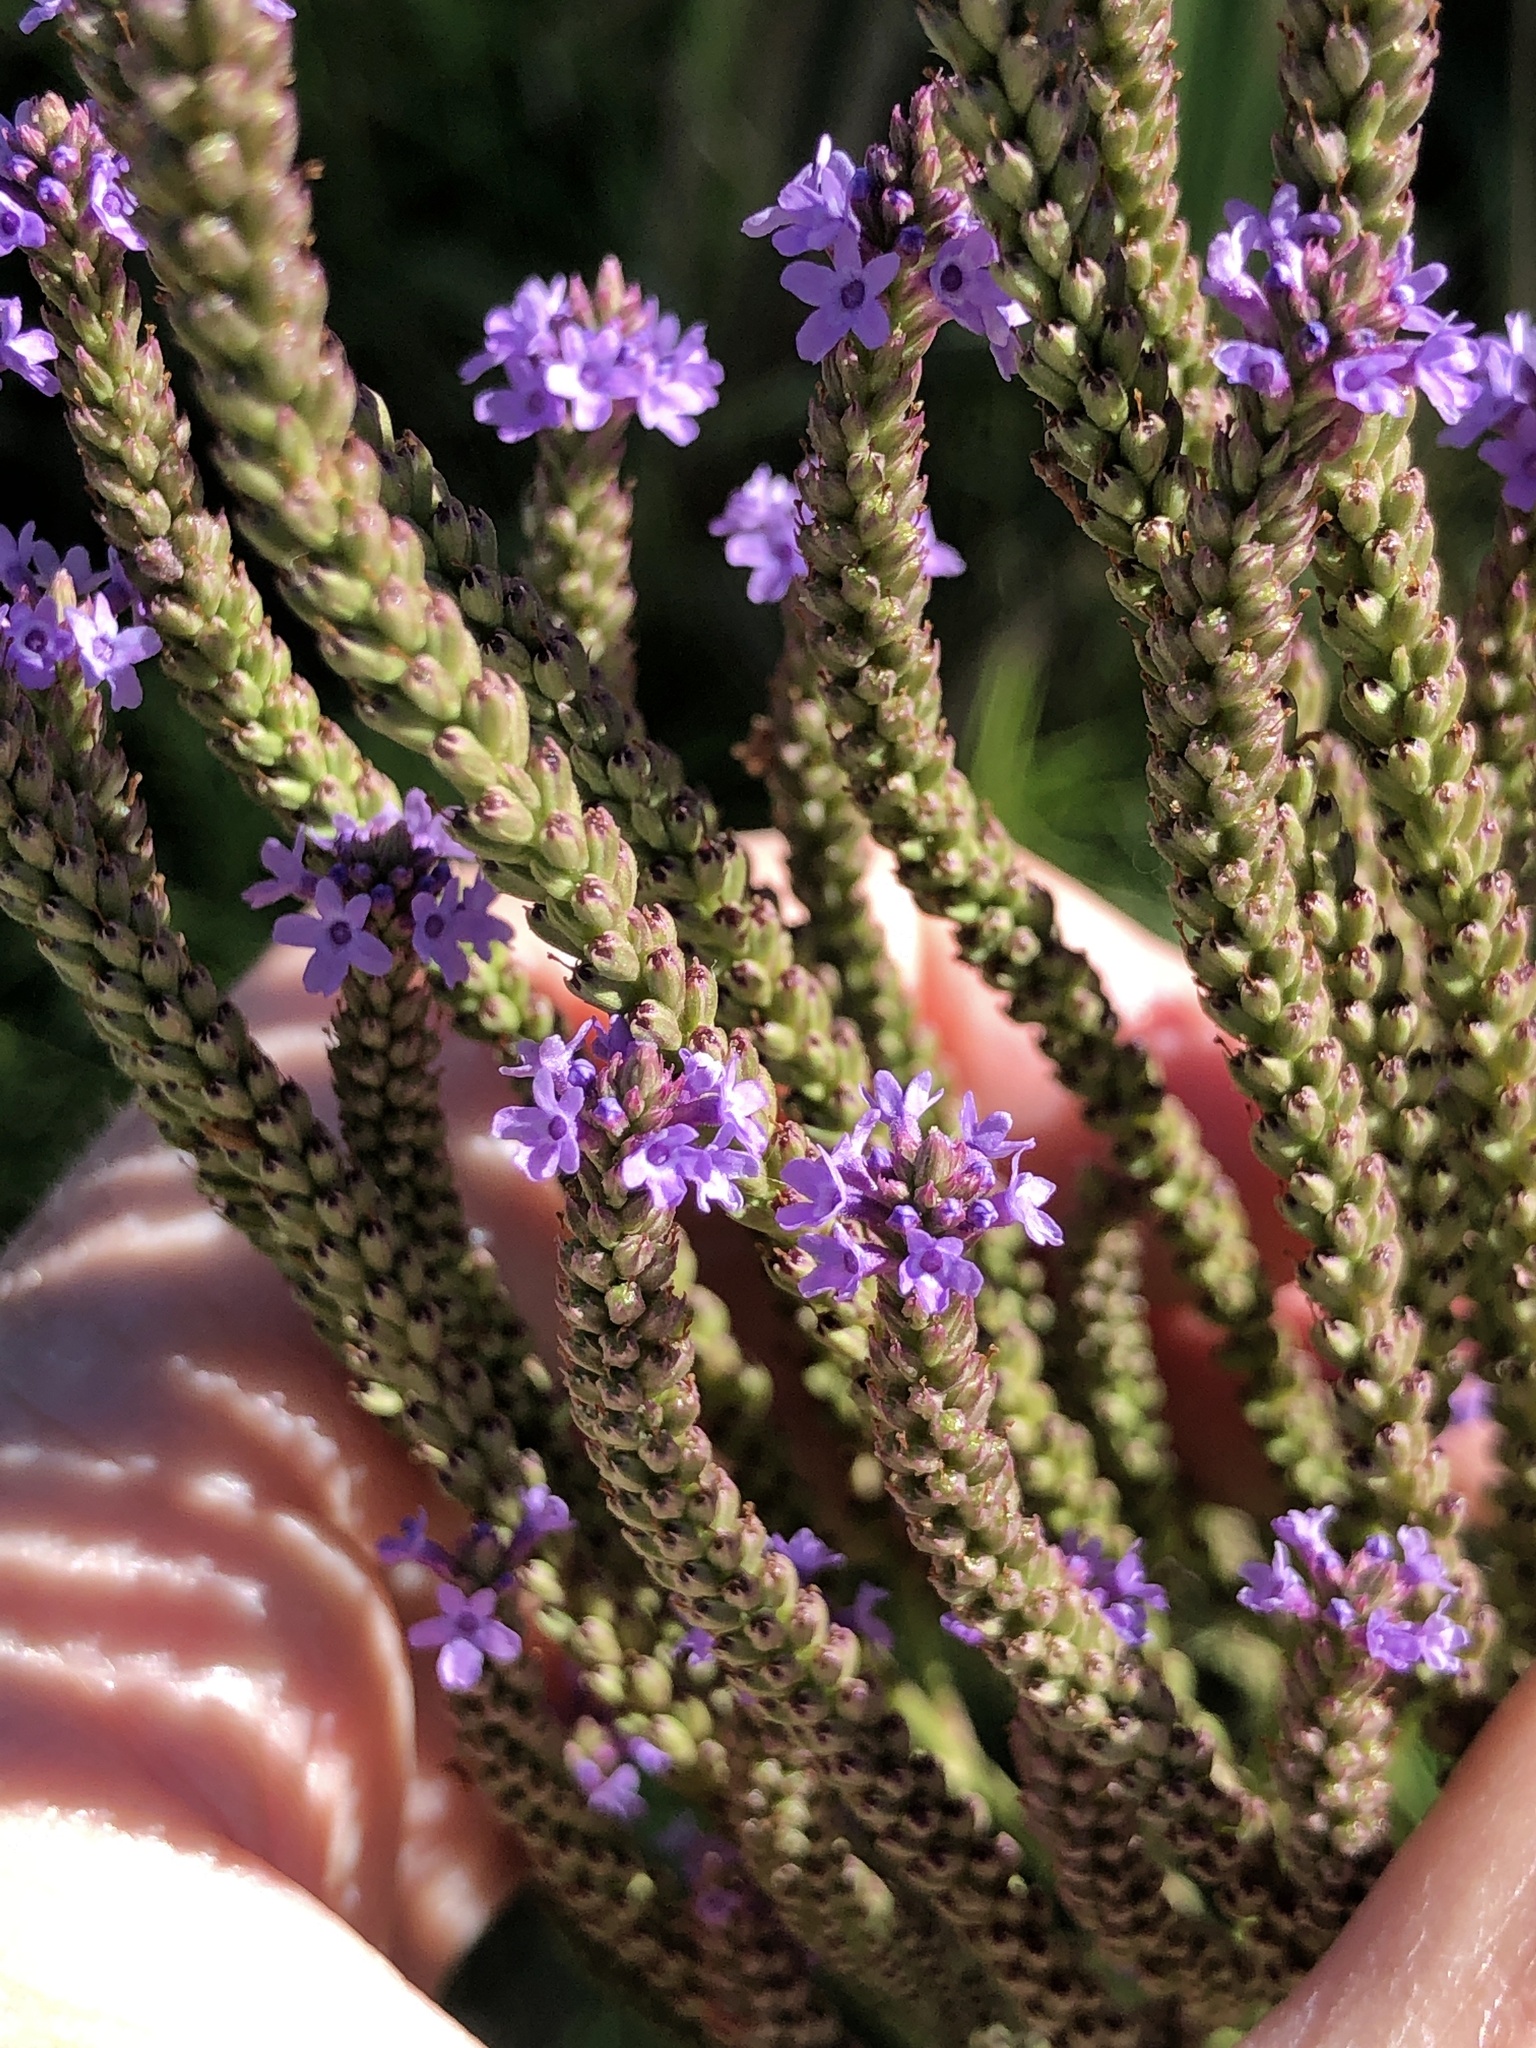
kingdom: Plantae
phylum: Tracheophyta
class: Magnoliopsida
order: Lamiales
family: Verbenaceae
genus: Verbena
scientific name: Verbena hastata
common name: American blue vervain
